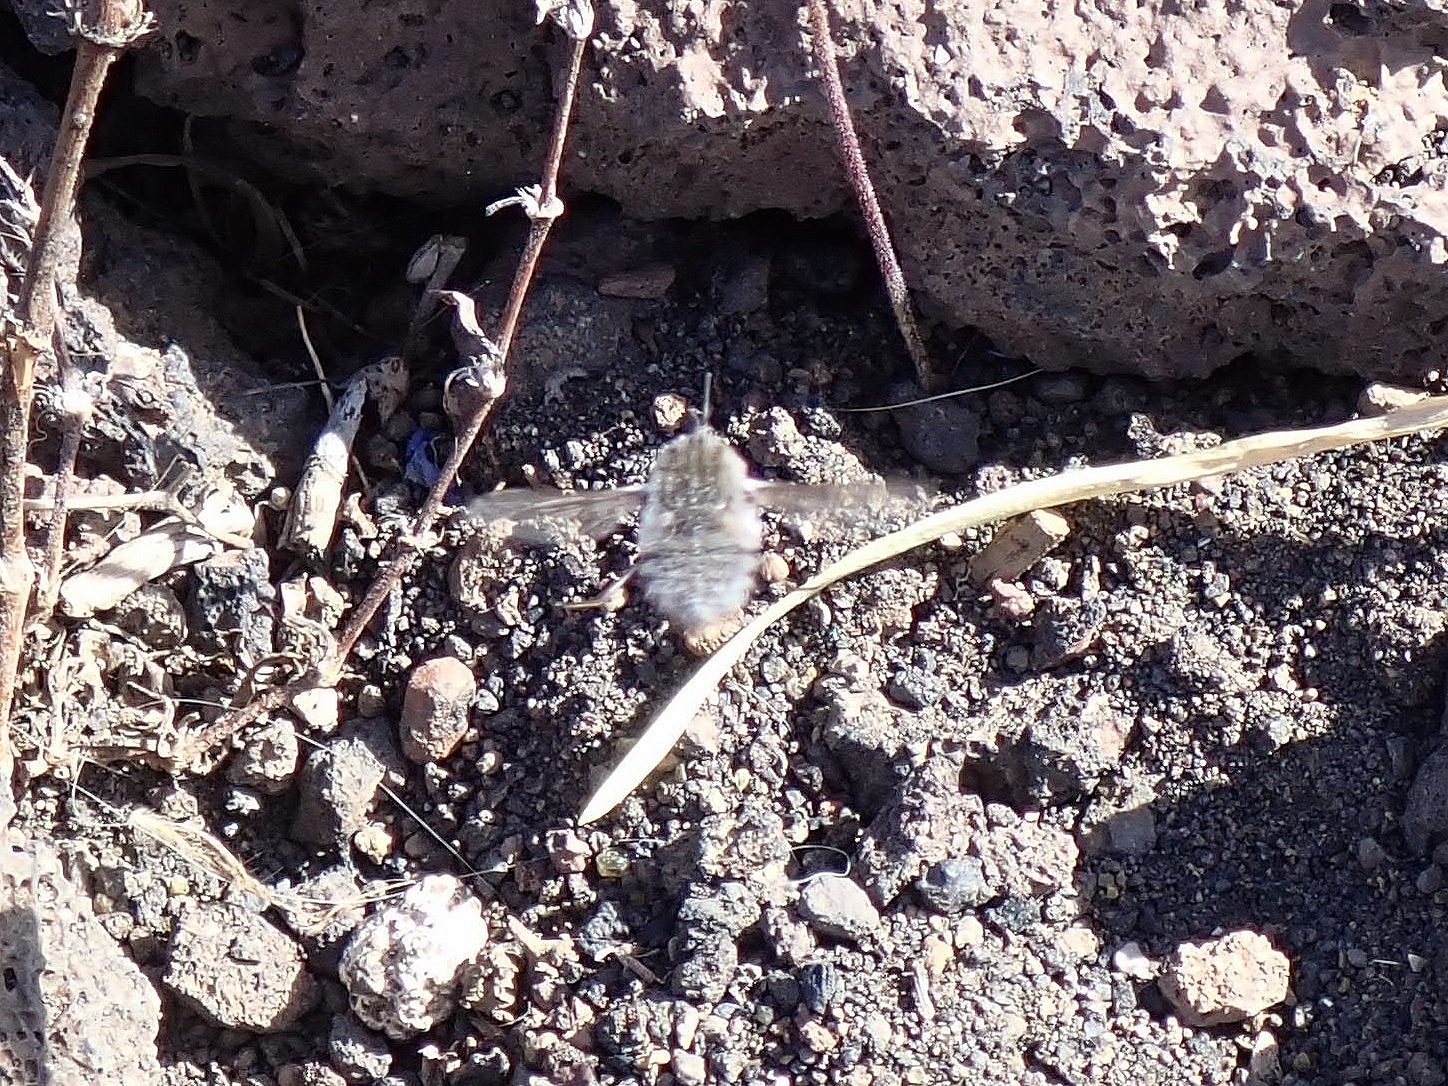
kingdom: Animalia
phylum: Arthropoda
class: Insecta
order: Diptera
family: Bombyliidae
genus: Bombylius
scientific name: Bombylius oceanus
